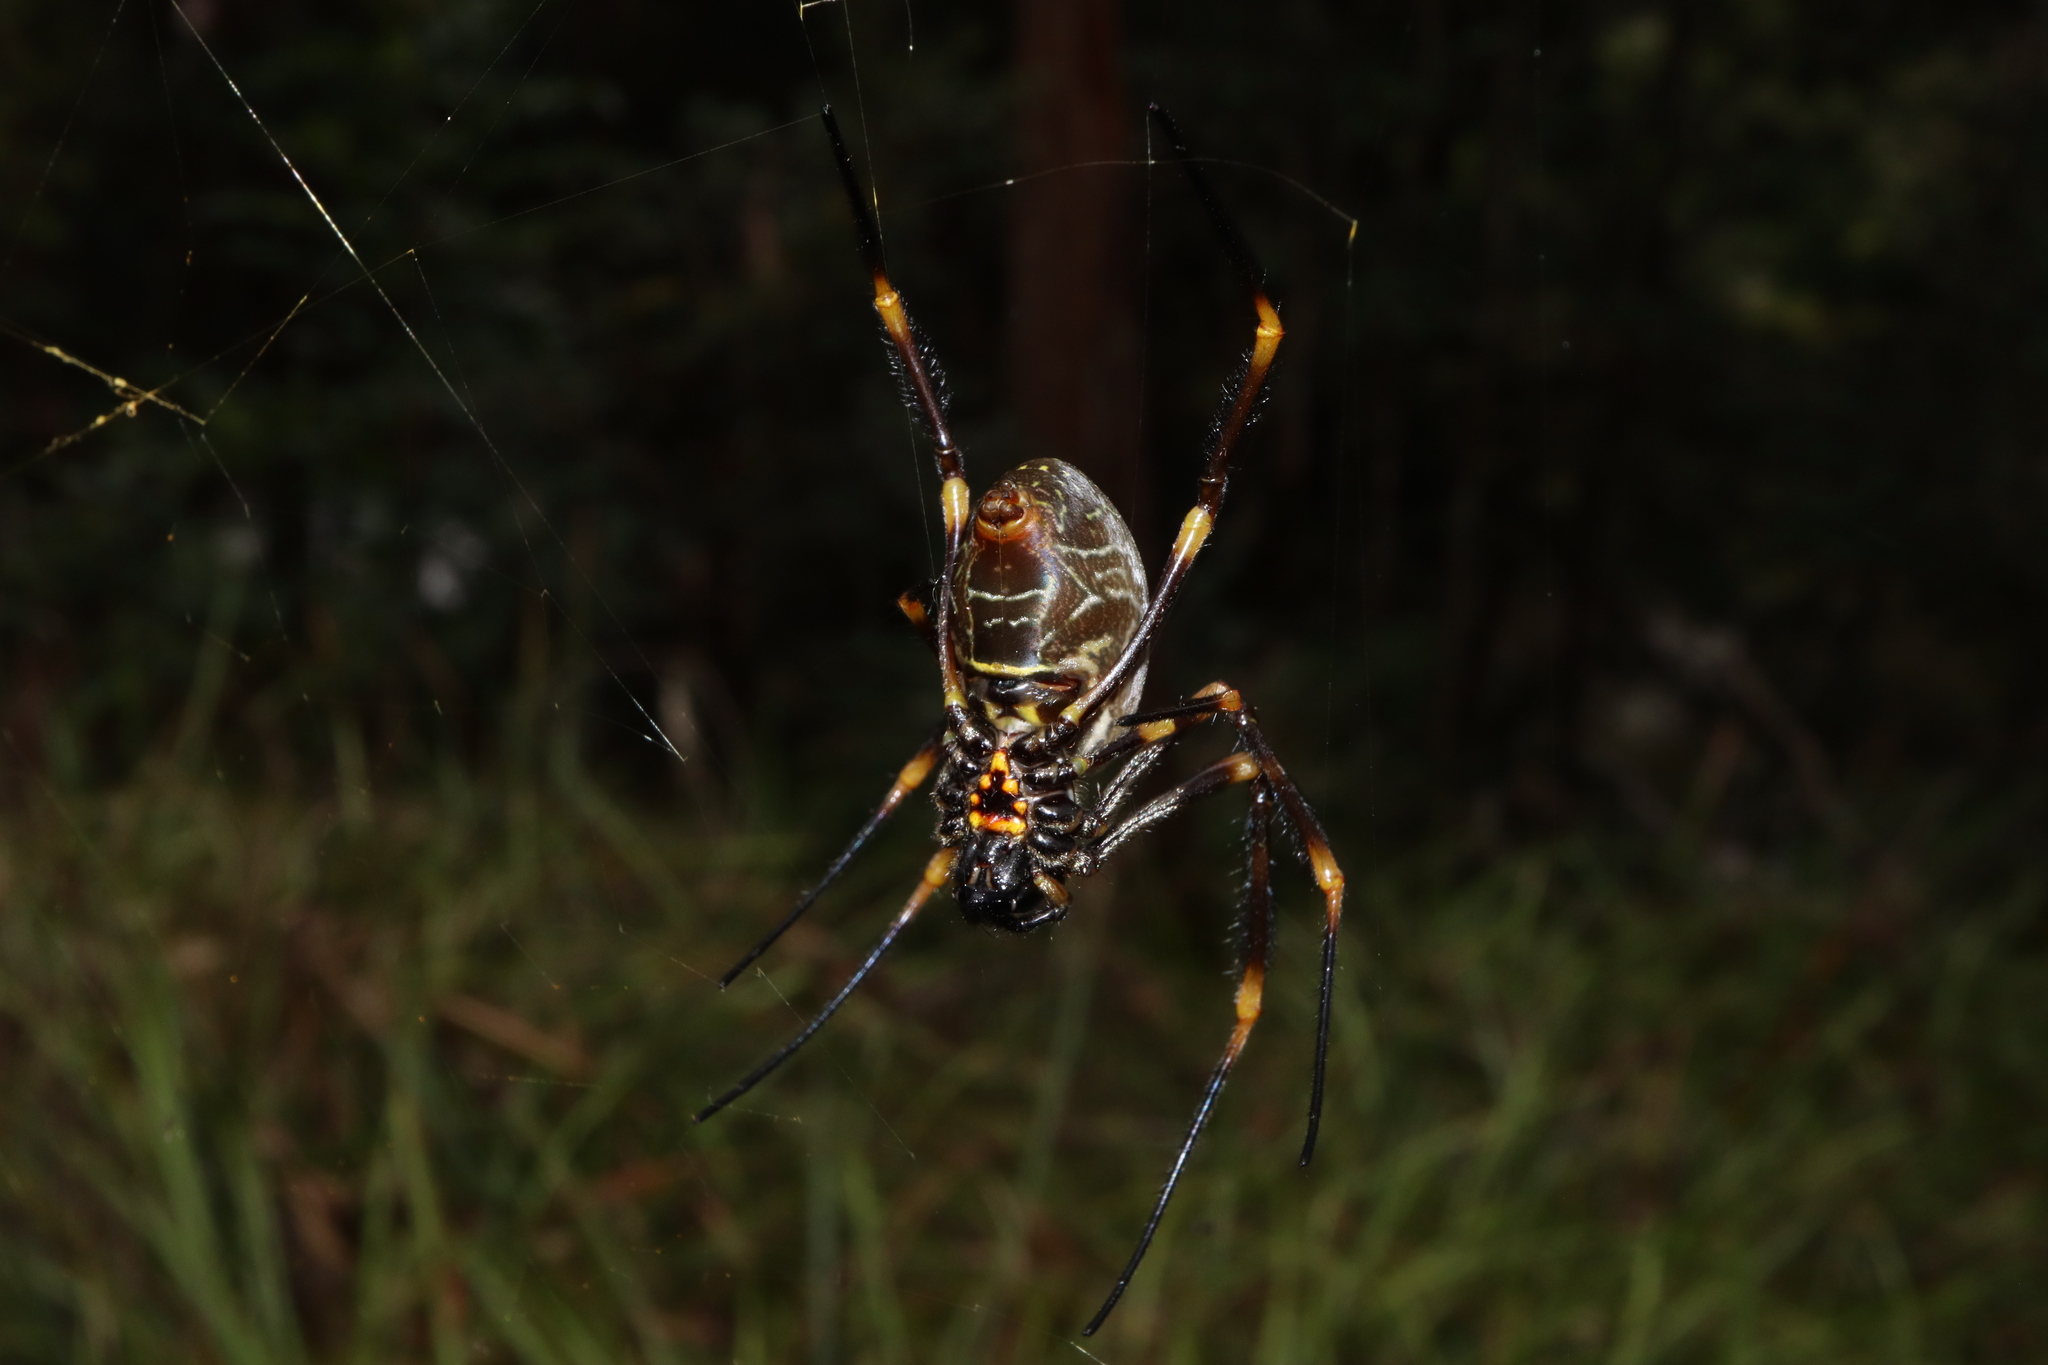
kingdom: Animalia
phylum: Arthropoda
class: Arachnida
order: Araneae
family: Araneidae
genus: Trichonephila
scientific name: Trichonephila plumipes
